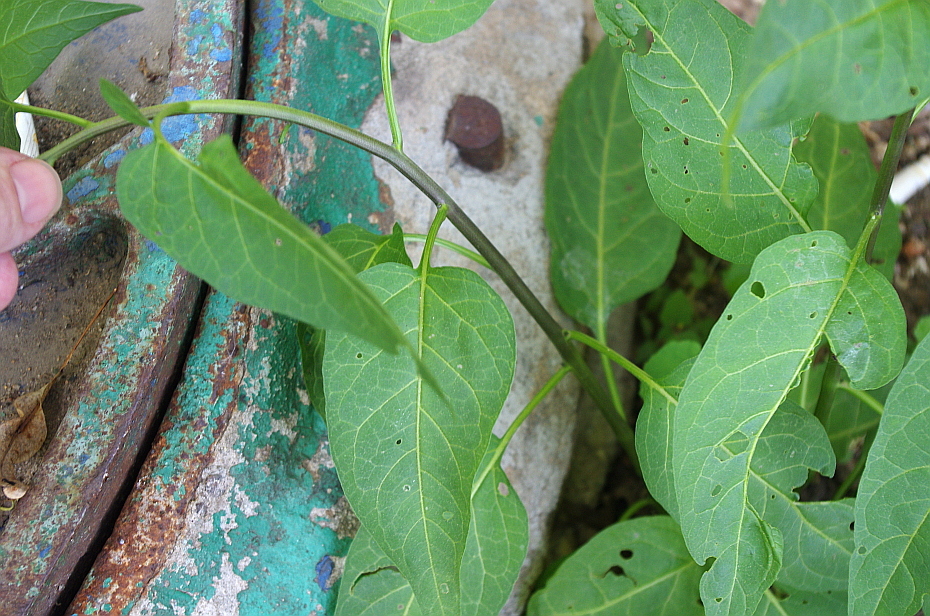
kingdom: Plantae
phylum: Tracheophyta
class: Magnoliopsida
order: Solanales
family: Solanaceae
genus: Solanum
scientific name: Solanum dulcamara
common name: Climbing nightshade
